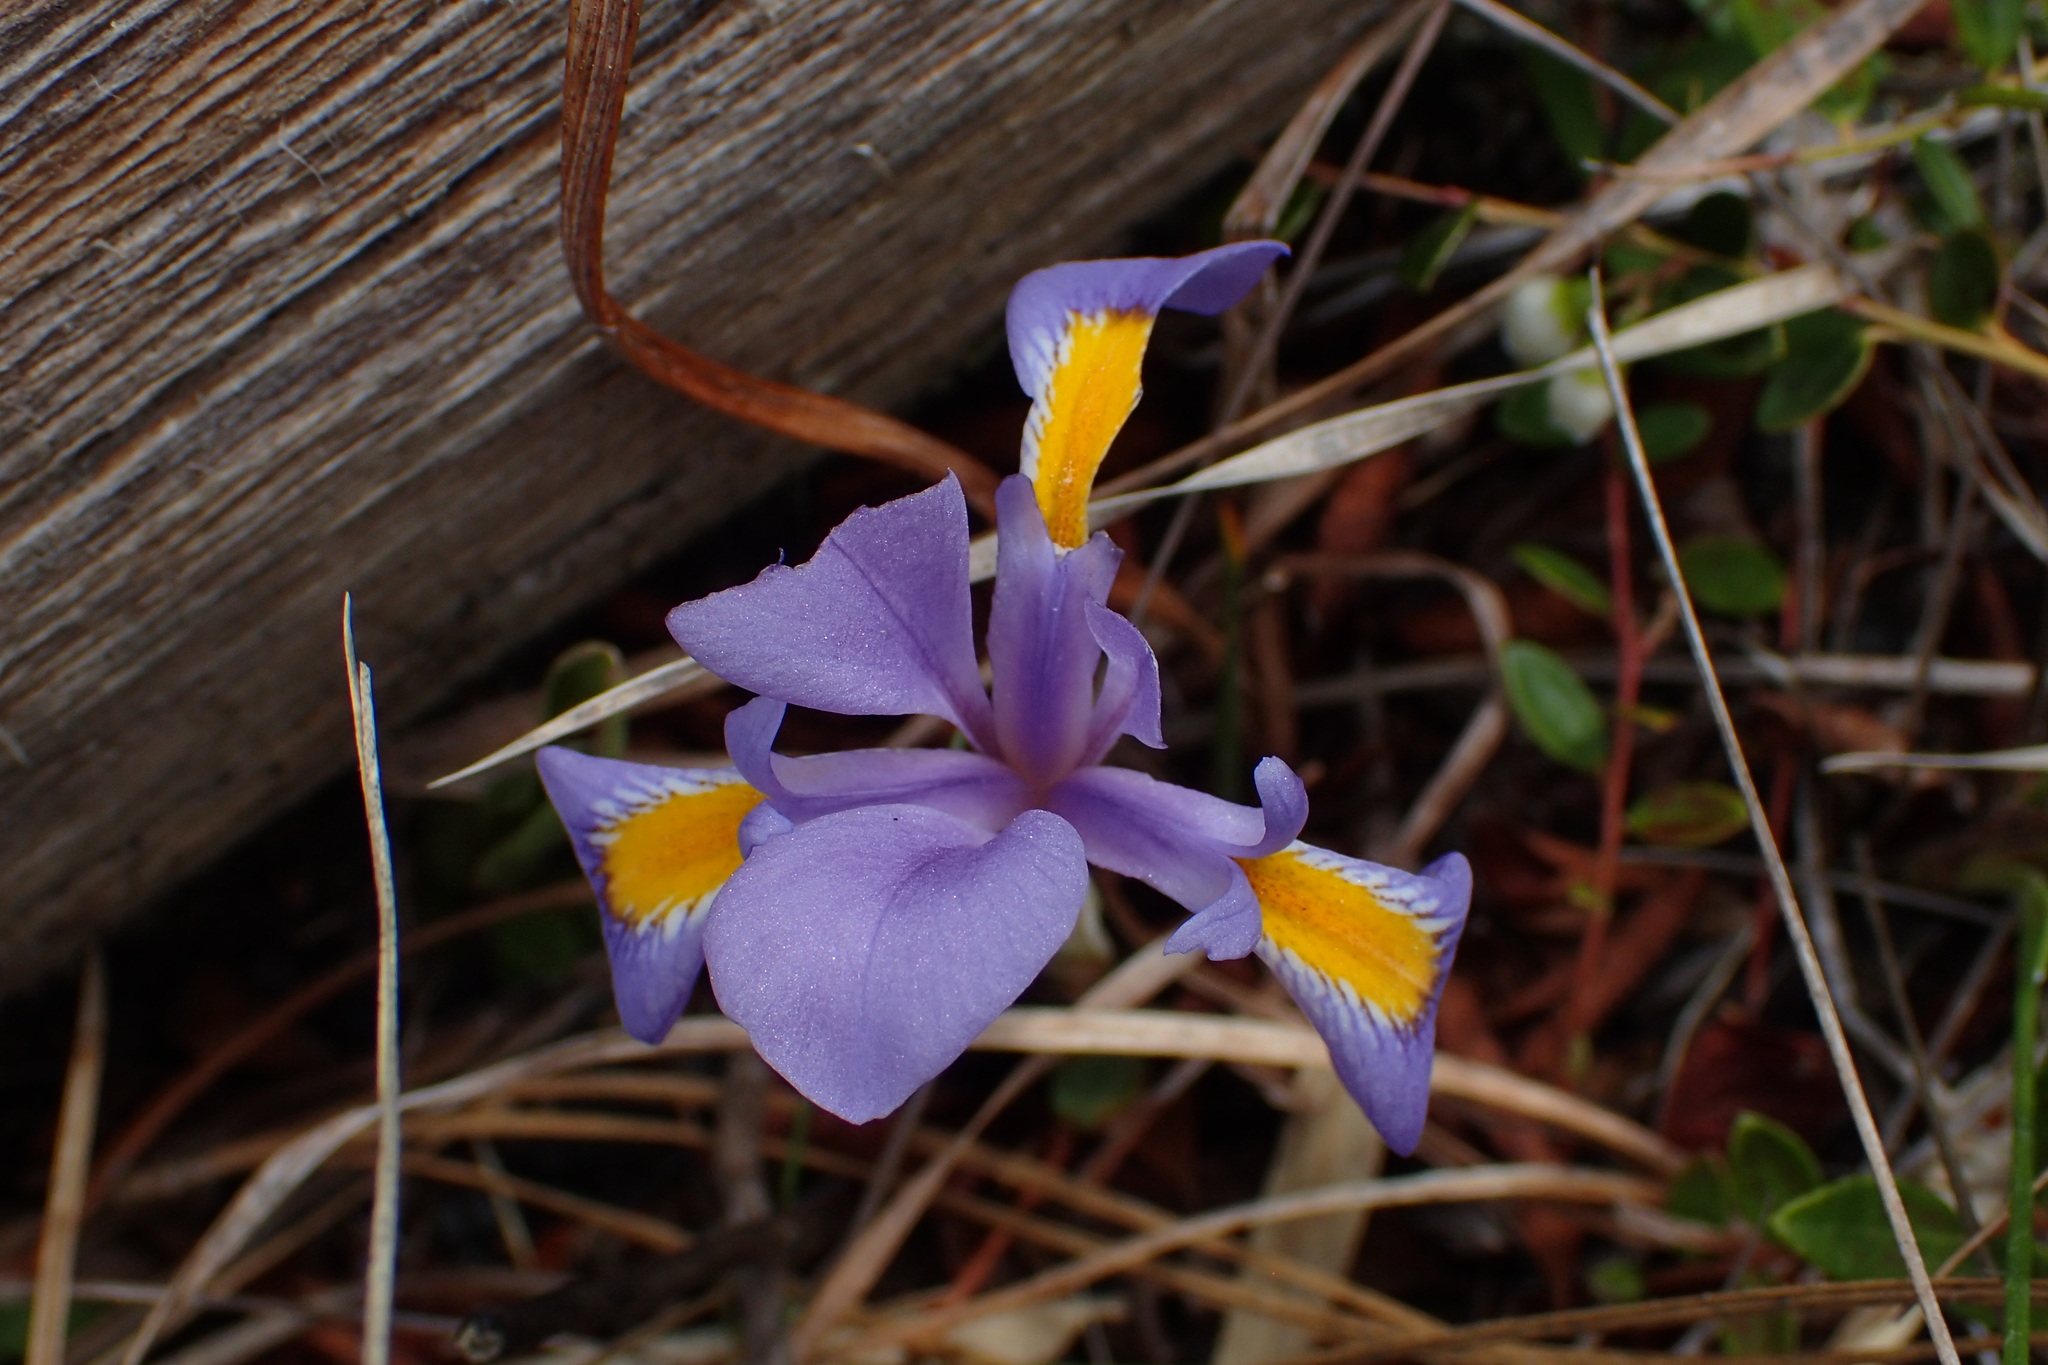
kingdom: Plantae
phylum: Tracheophyta
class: Liliopsida
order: Asparagales
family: Iridaceae
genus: Iris
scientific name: Iris verna
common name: Dwarf iris
